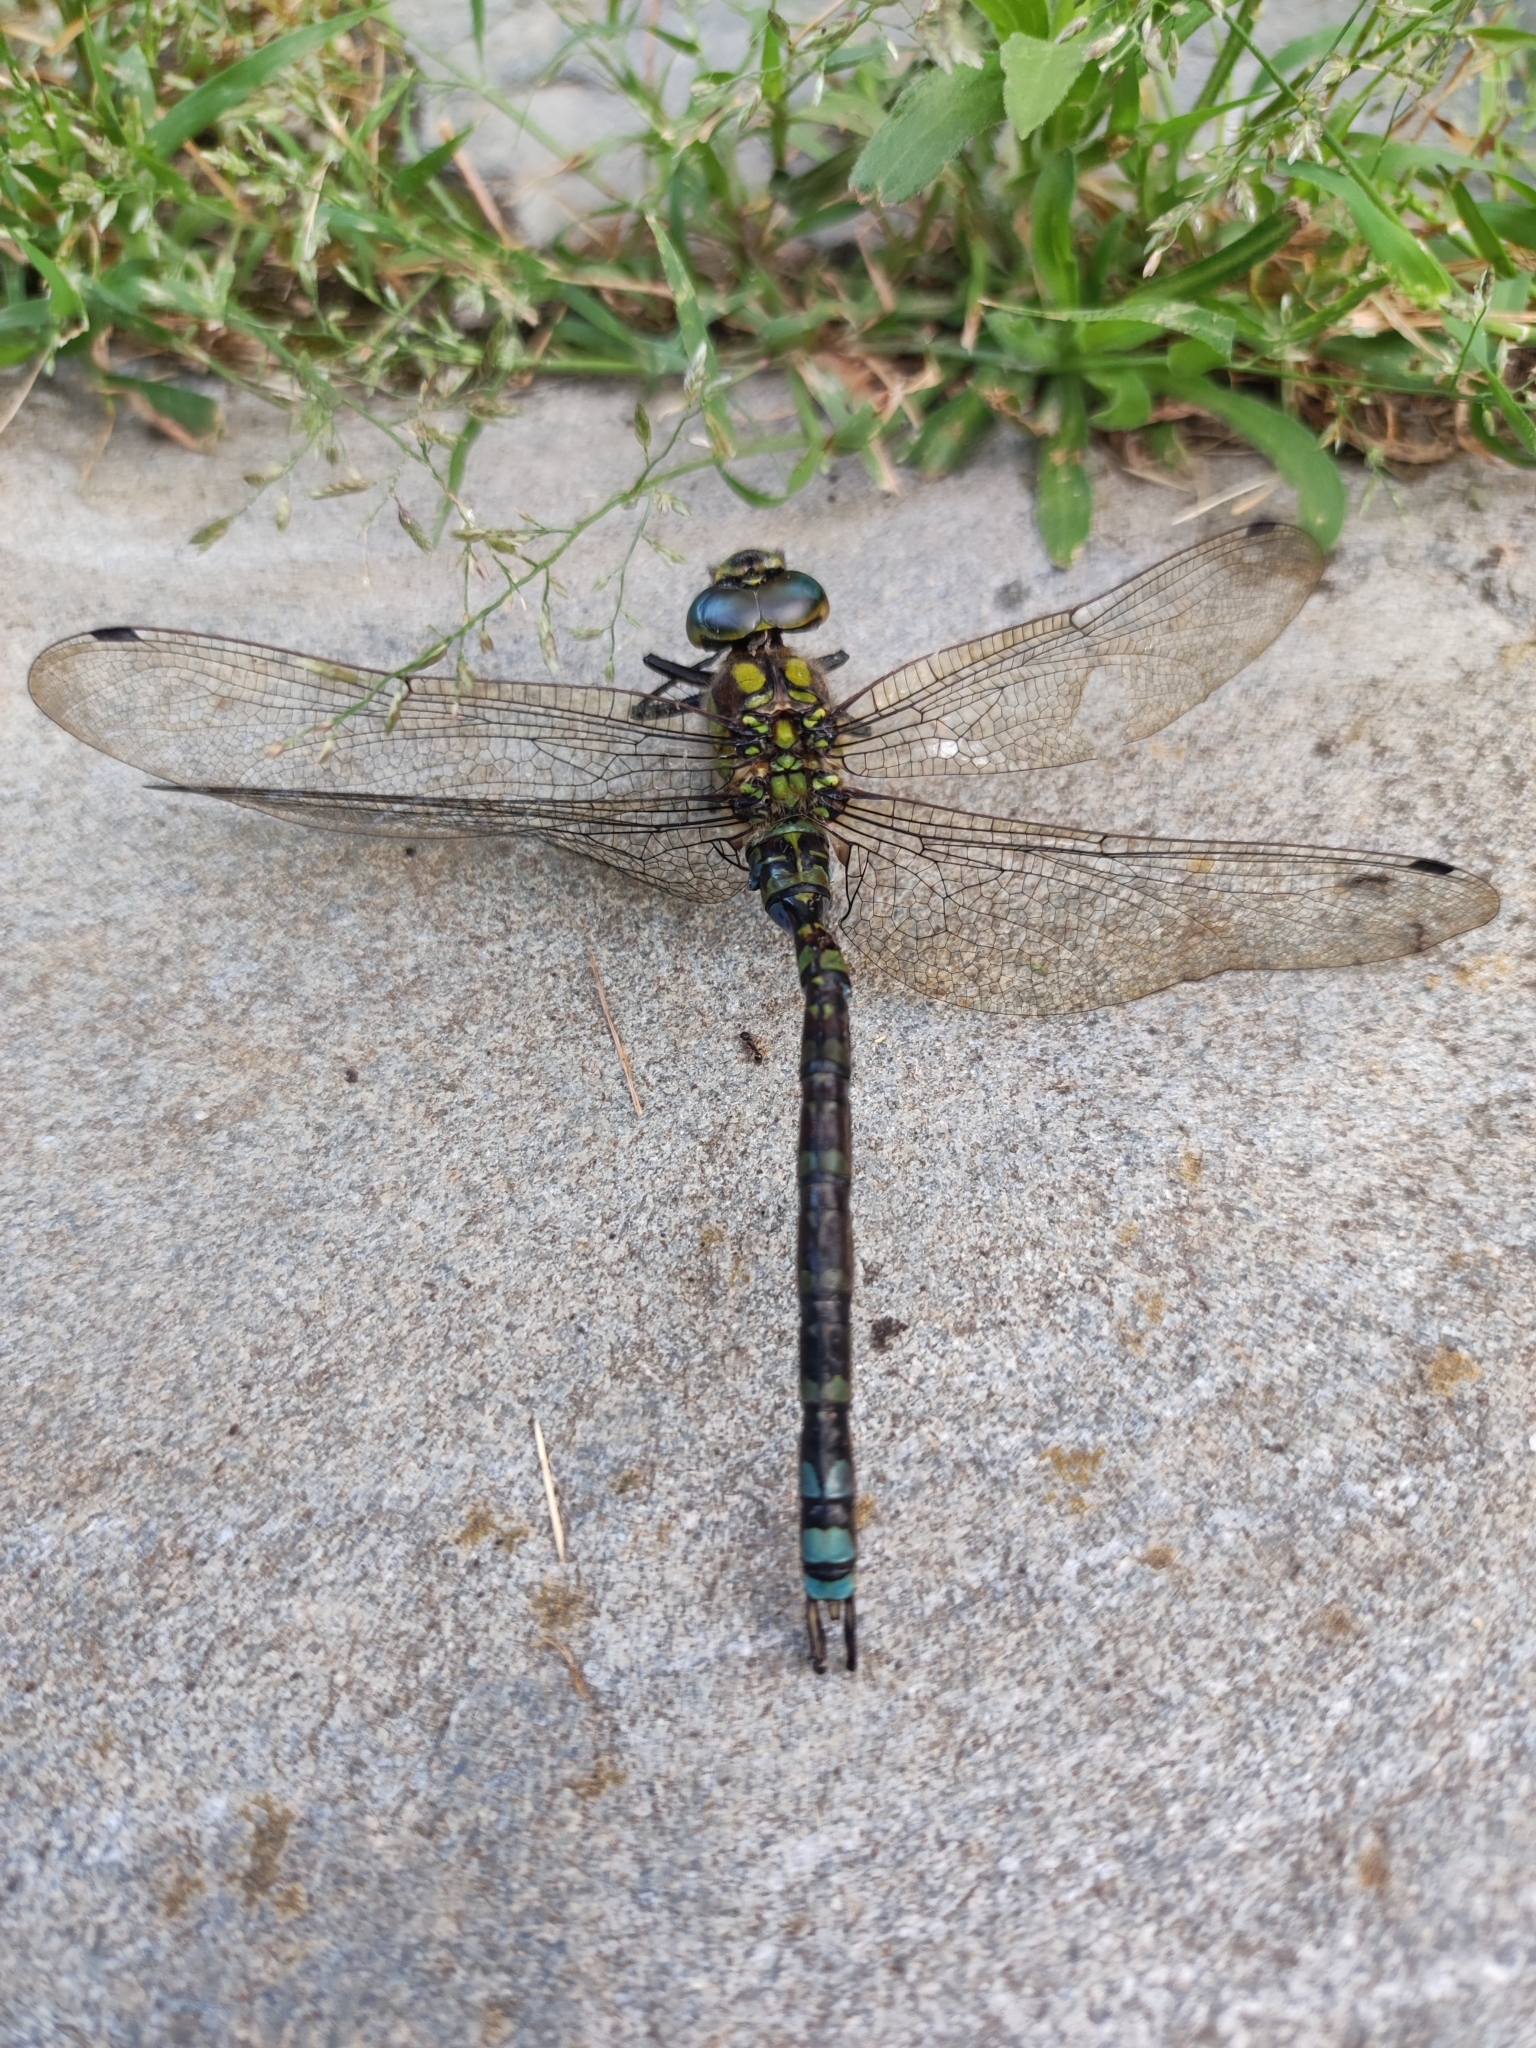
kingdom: Animalia
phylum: Arthropoda
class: Insecta
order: Odonata
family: Aeshnidae
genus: Aeshna
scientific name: Aeshna cyanea
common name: Southern hawker
